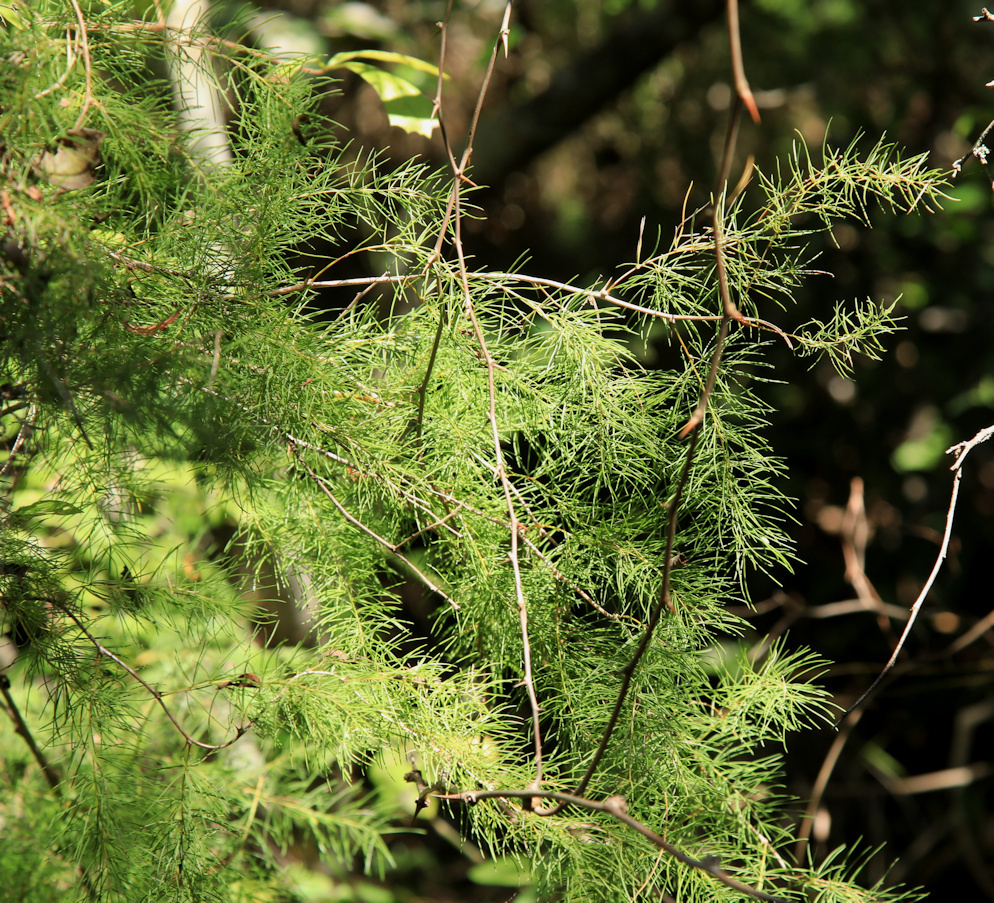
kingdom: Plantae
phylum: Tracheophyta
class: Liliopsida
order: Asparagales
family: Asparagaceae
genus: Asparagus
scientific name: Asparagus buchananii
